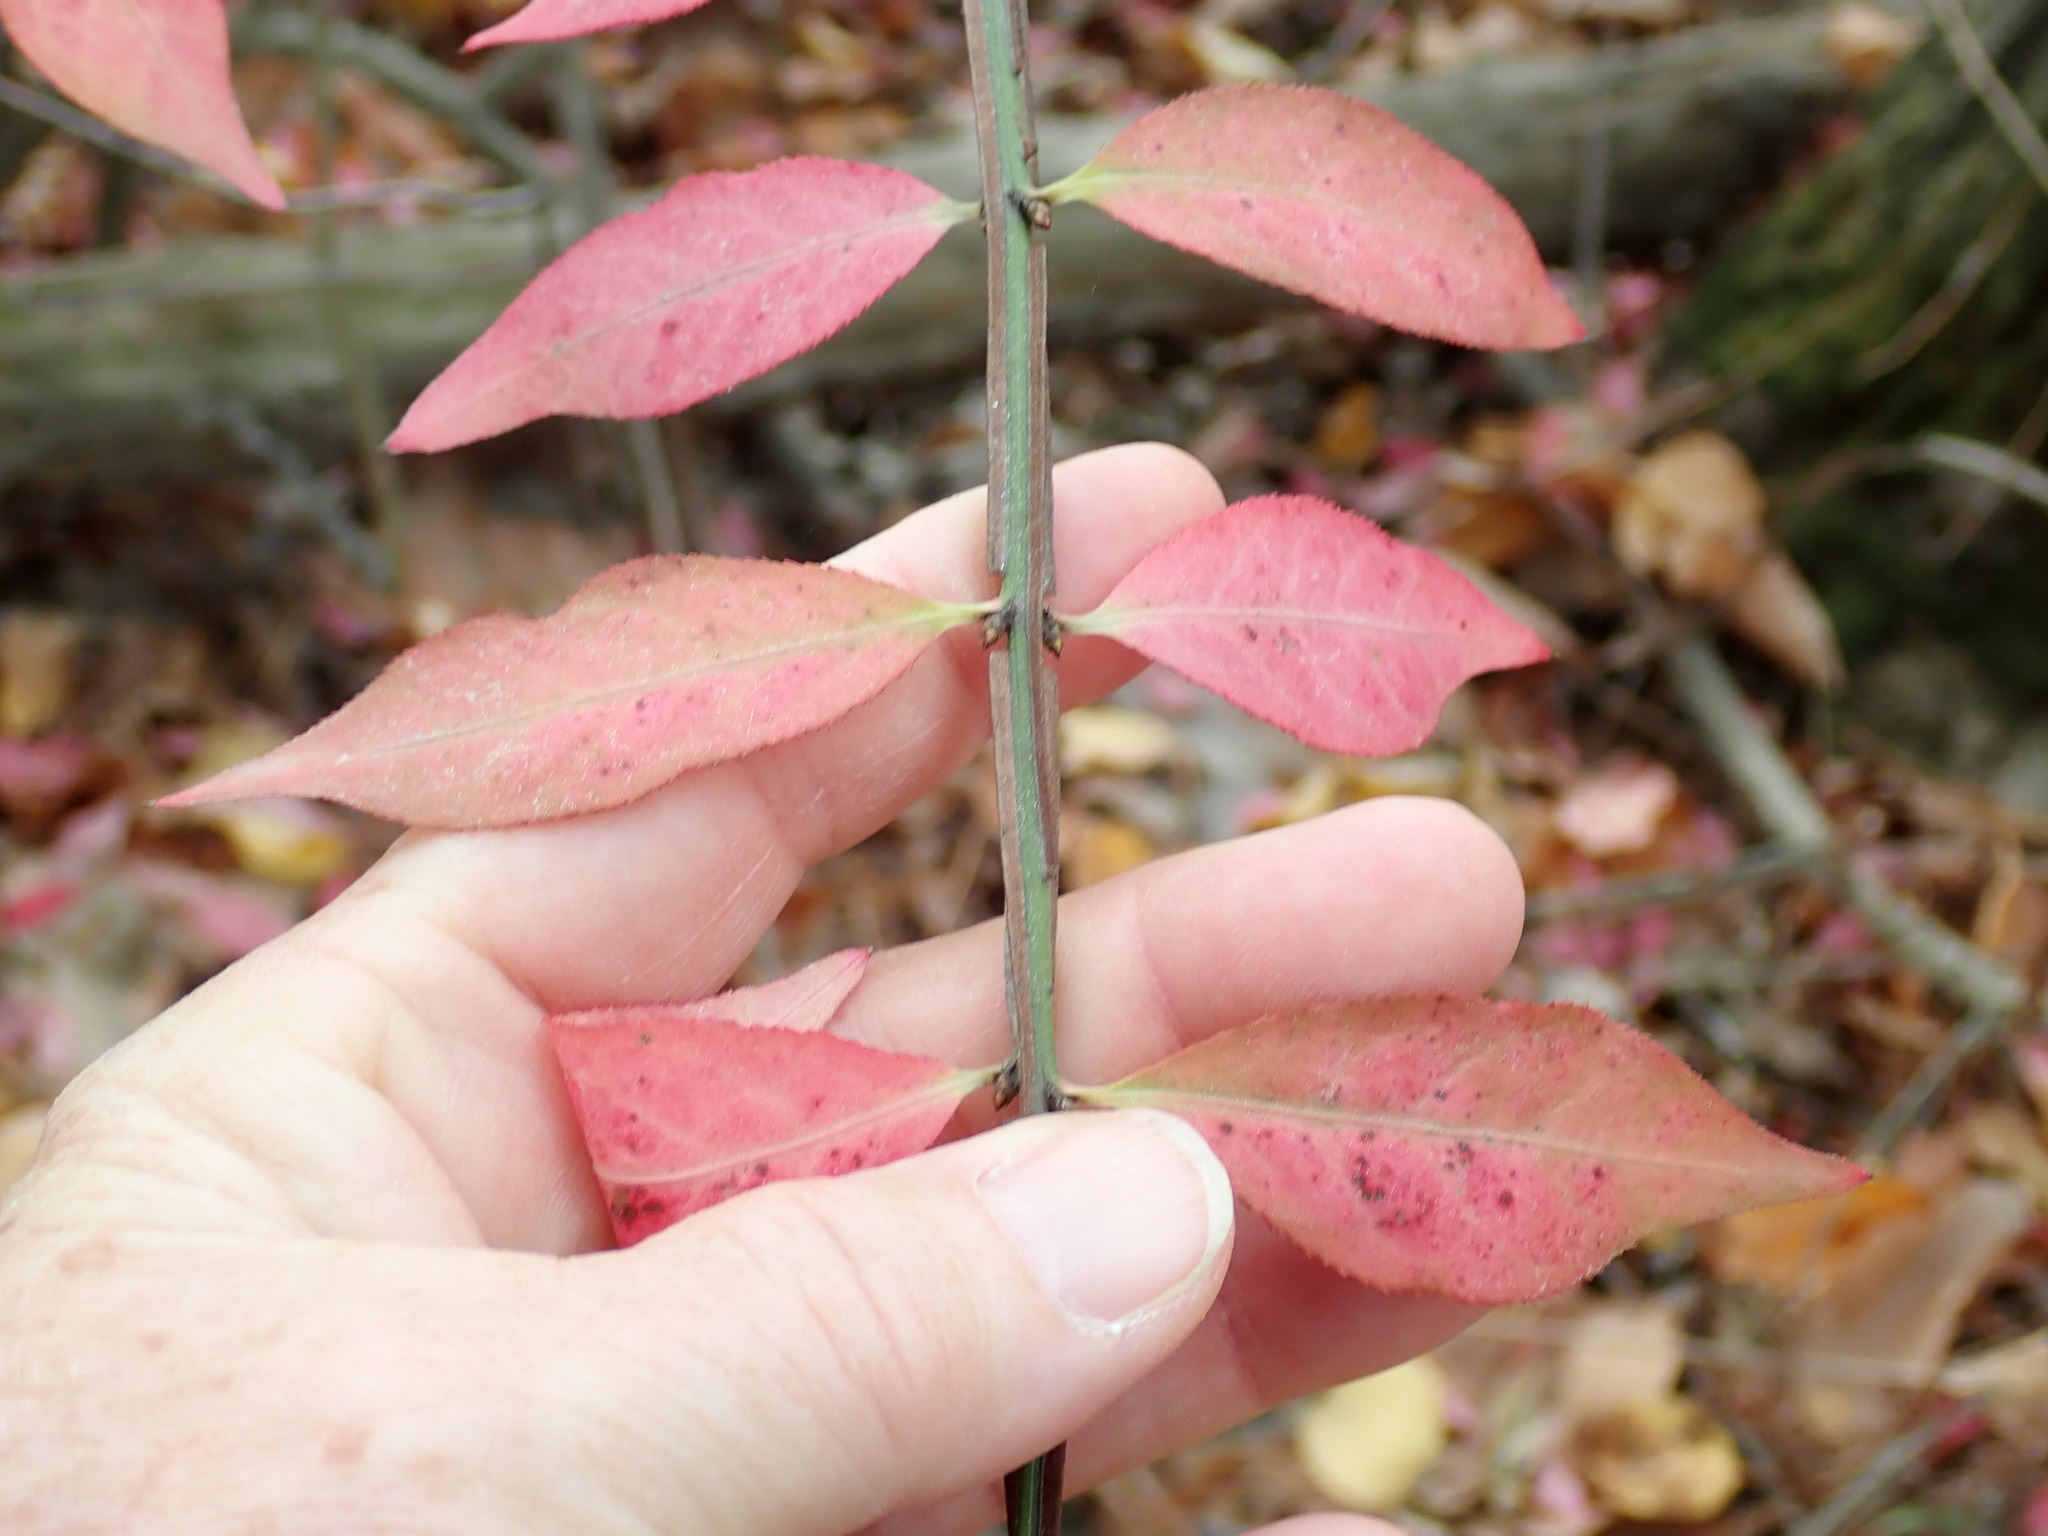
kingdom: Plantae
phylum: Tracheophyta
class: Magnoliopsida
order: Celastrales
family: Celastraceae
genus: Euonymus
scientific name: Euonymus alatus
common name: Winged euonymus
